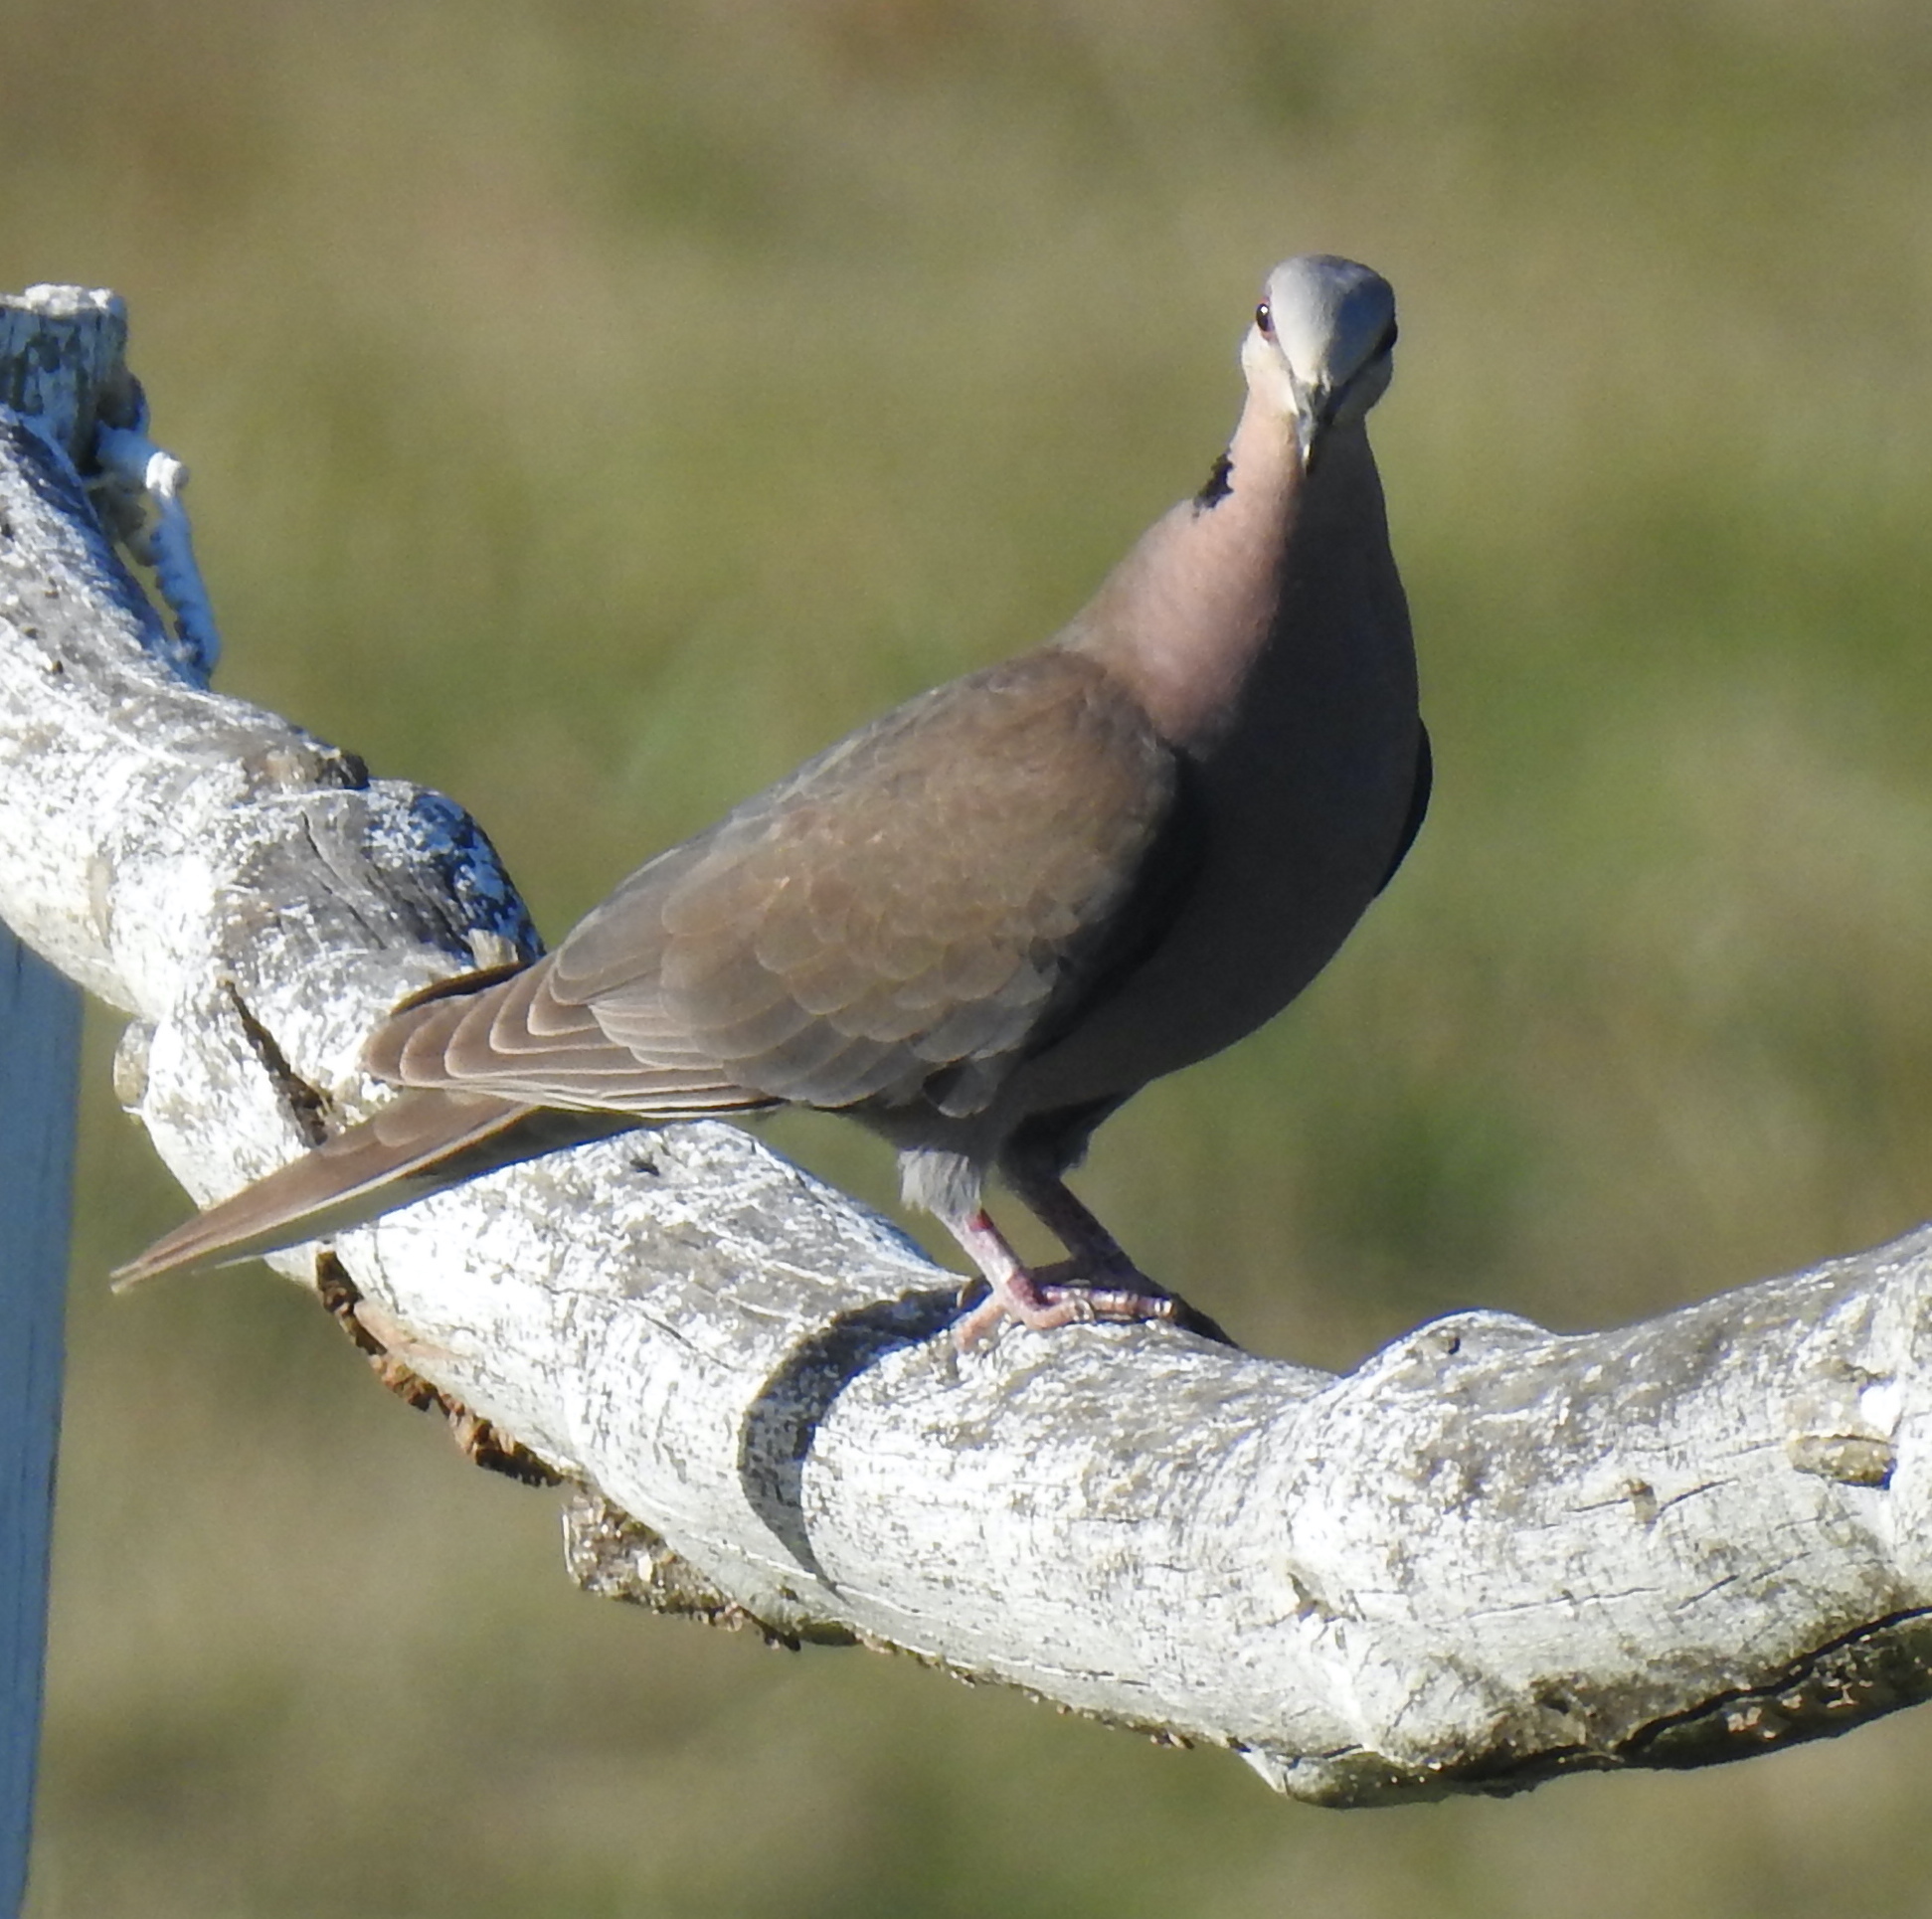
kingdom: Animalia
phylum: Chordata
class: Aves
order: Columbiformes
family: Columbidae
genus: Streptopelia
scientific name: Streptopelia semitorquata
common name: Red-eyed dove
